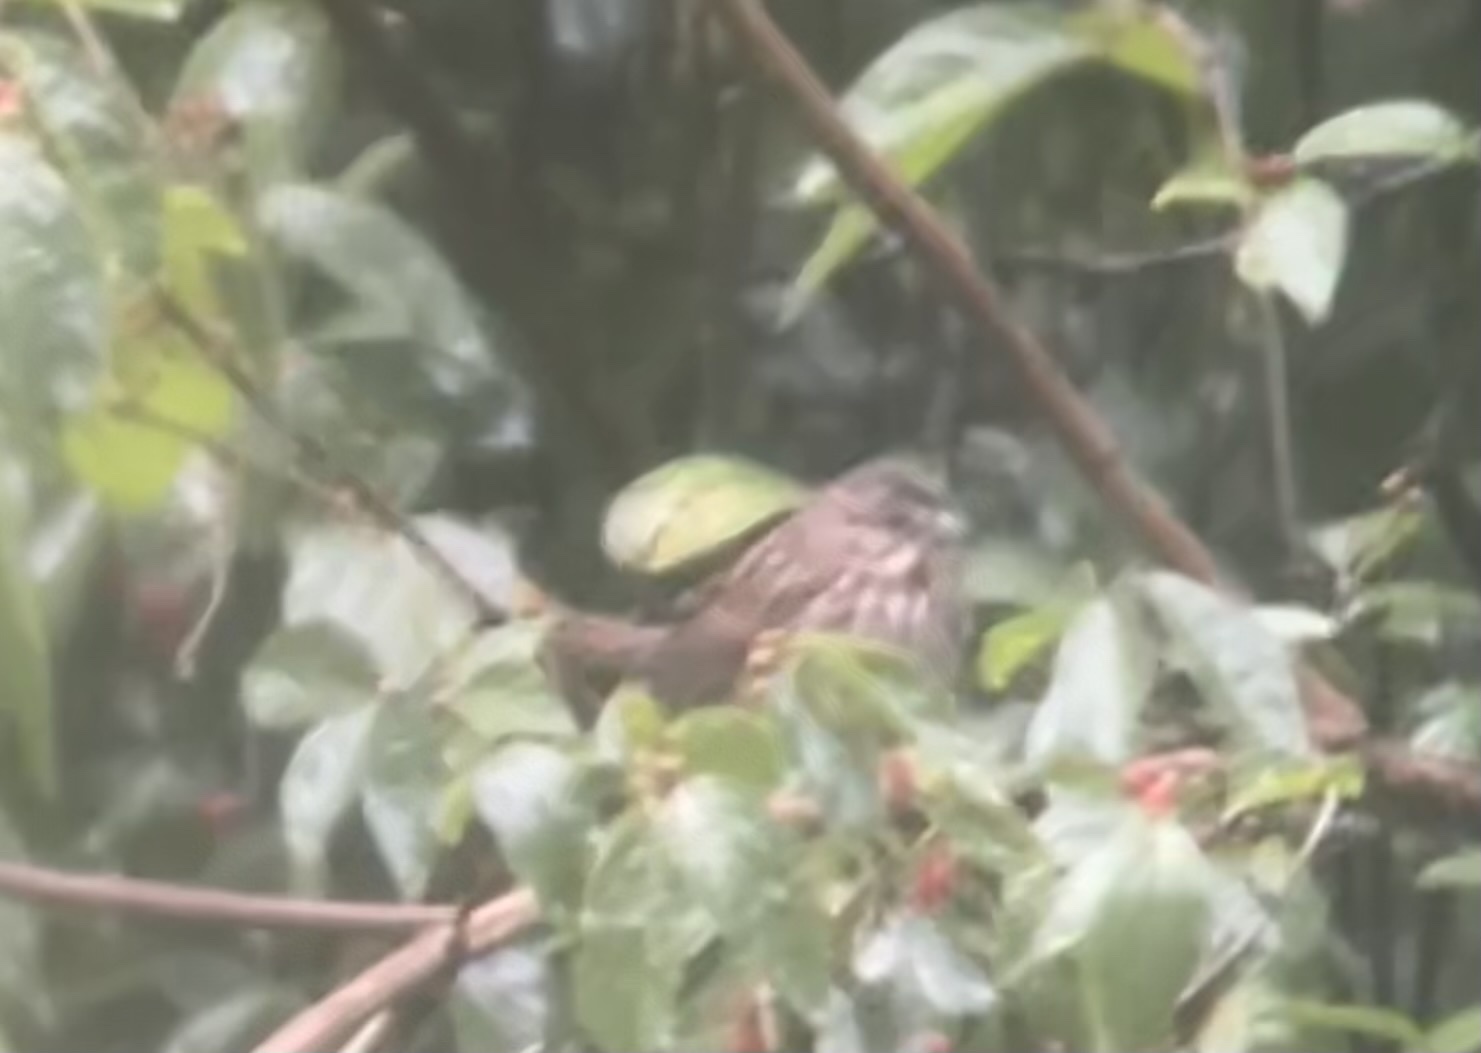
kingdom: Animalia
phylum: Chordata
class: Aves
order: Passeriformes
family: Passerellidae
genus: Melospiza
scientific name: Melospiza melodia
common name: Song sparrow
